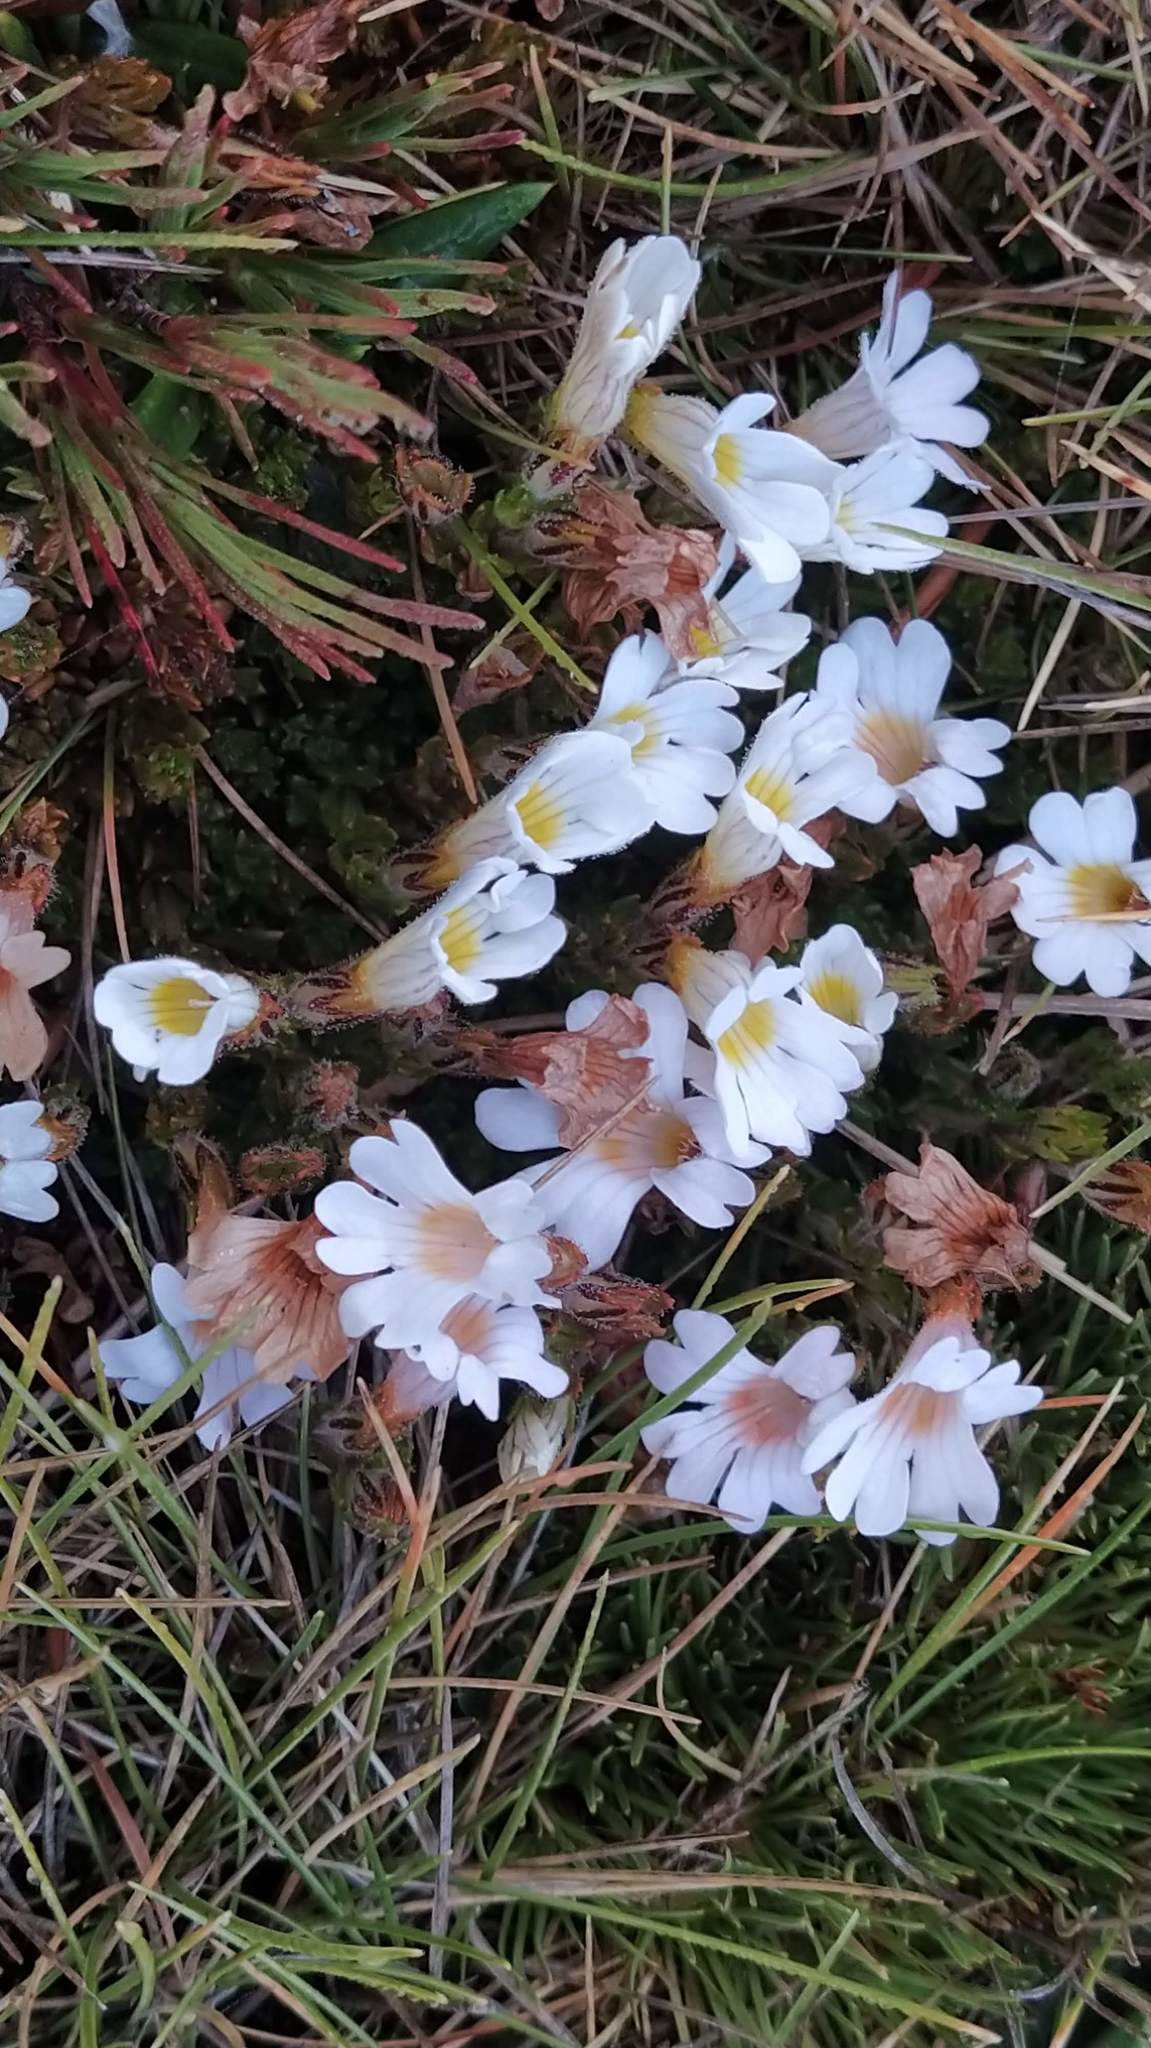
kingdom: Plantae
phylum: Tracheophyta
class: Magnoliopsida
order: Lamiales
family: Orobanchaceae
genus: Euphrasia
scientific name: Euphrasia townsonii
